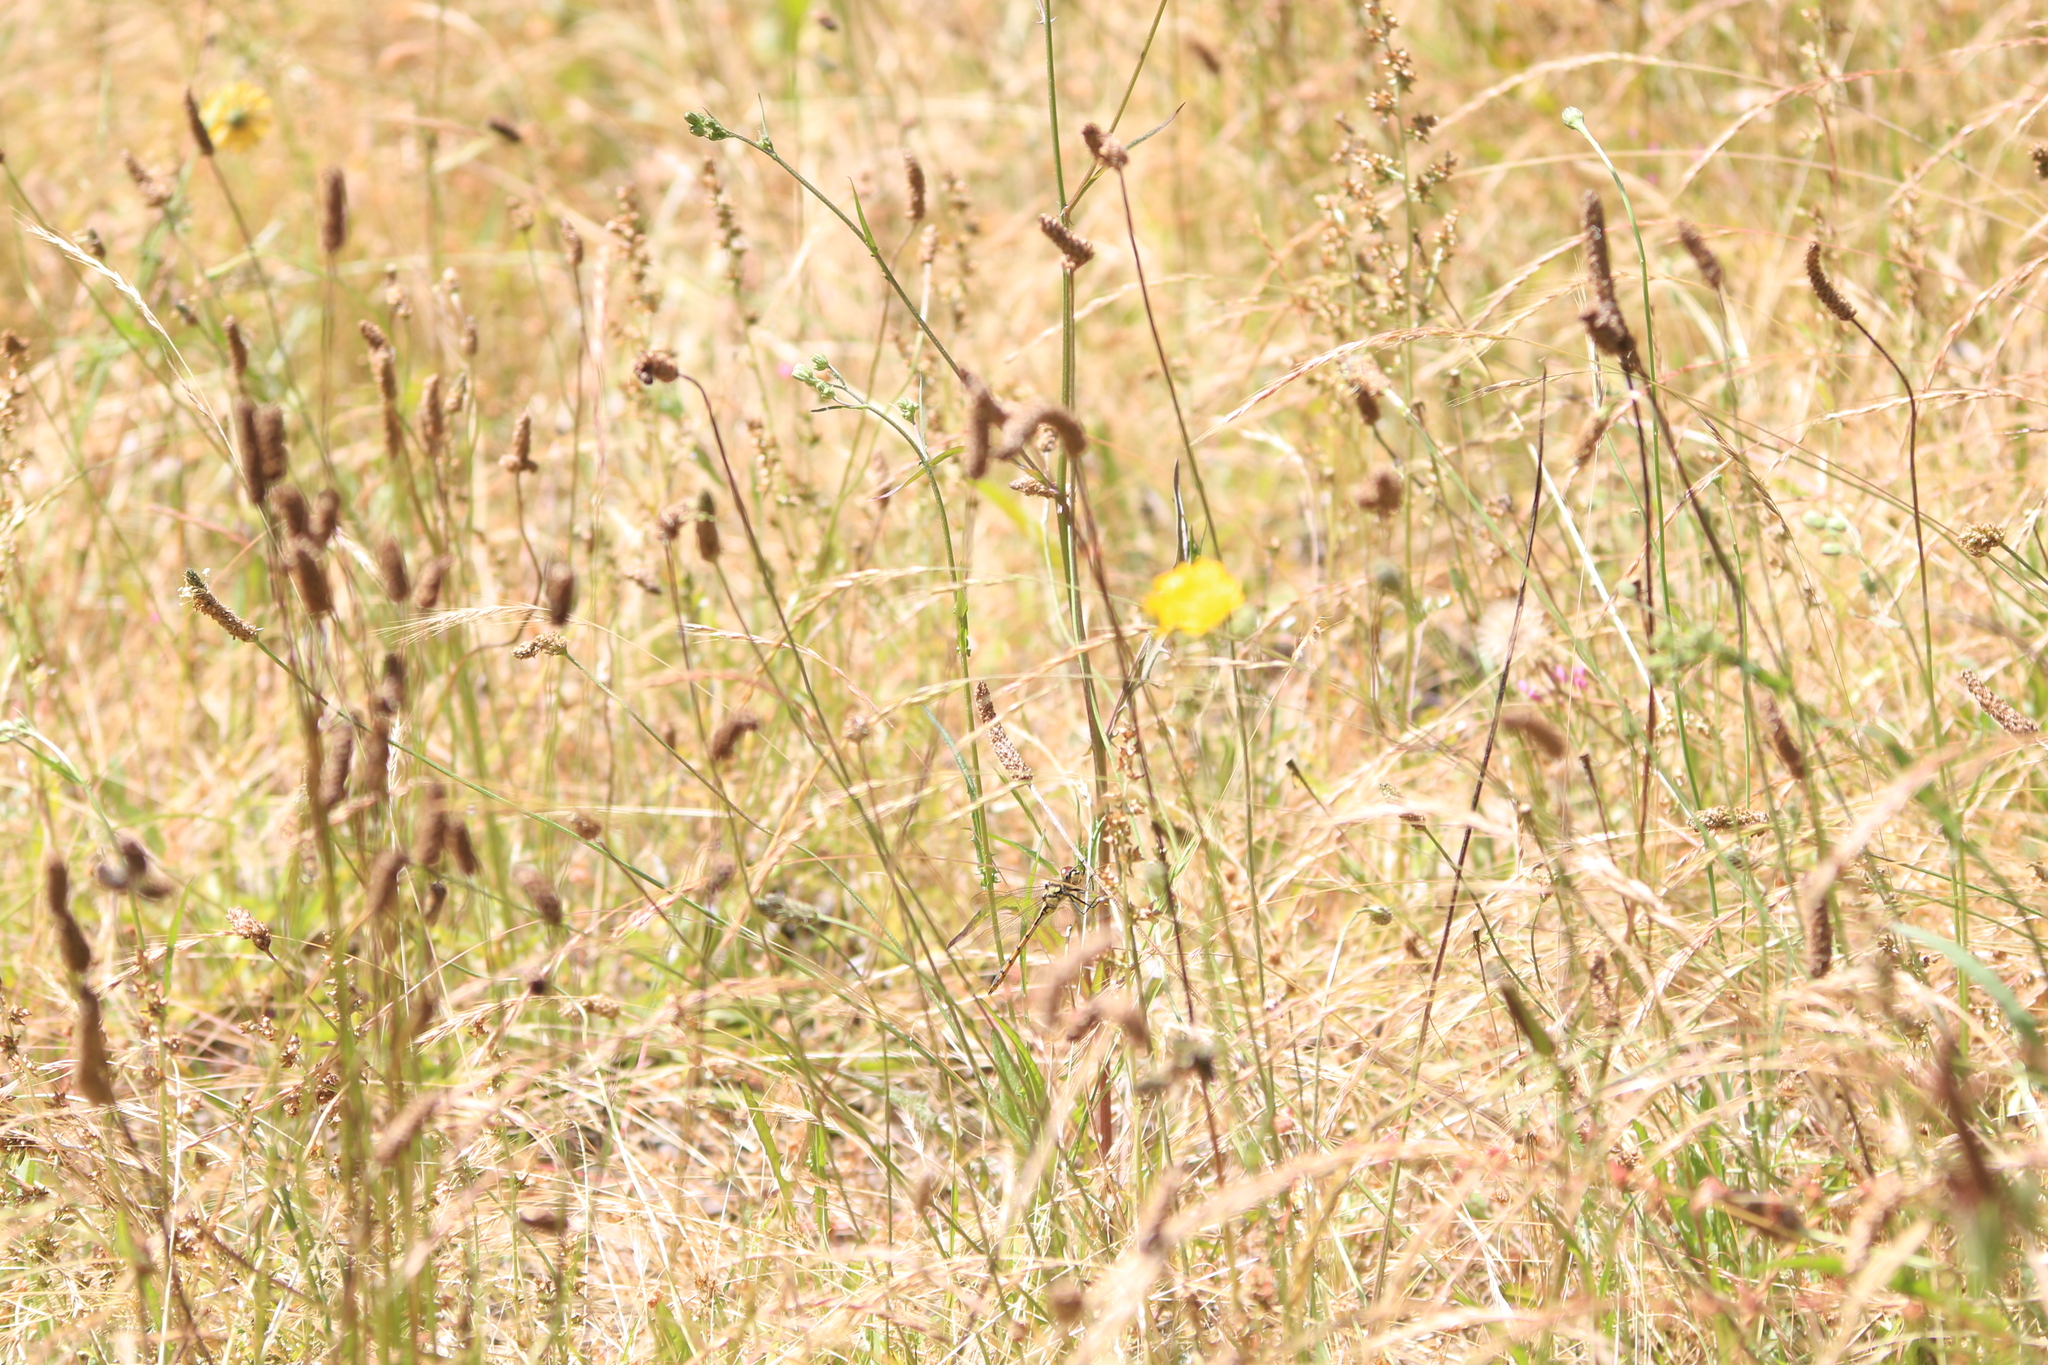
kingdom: Animalia
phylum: Arthropoda
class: Insecta
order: Odonata
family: Corduliidae
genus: Hemicordulia
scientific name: Hemicordulia tau
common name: Tau emerald
